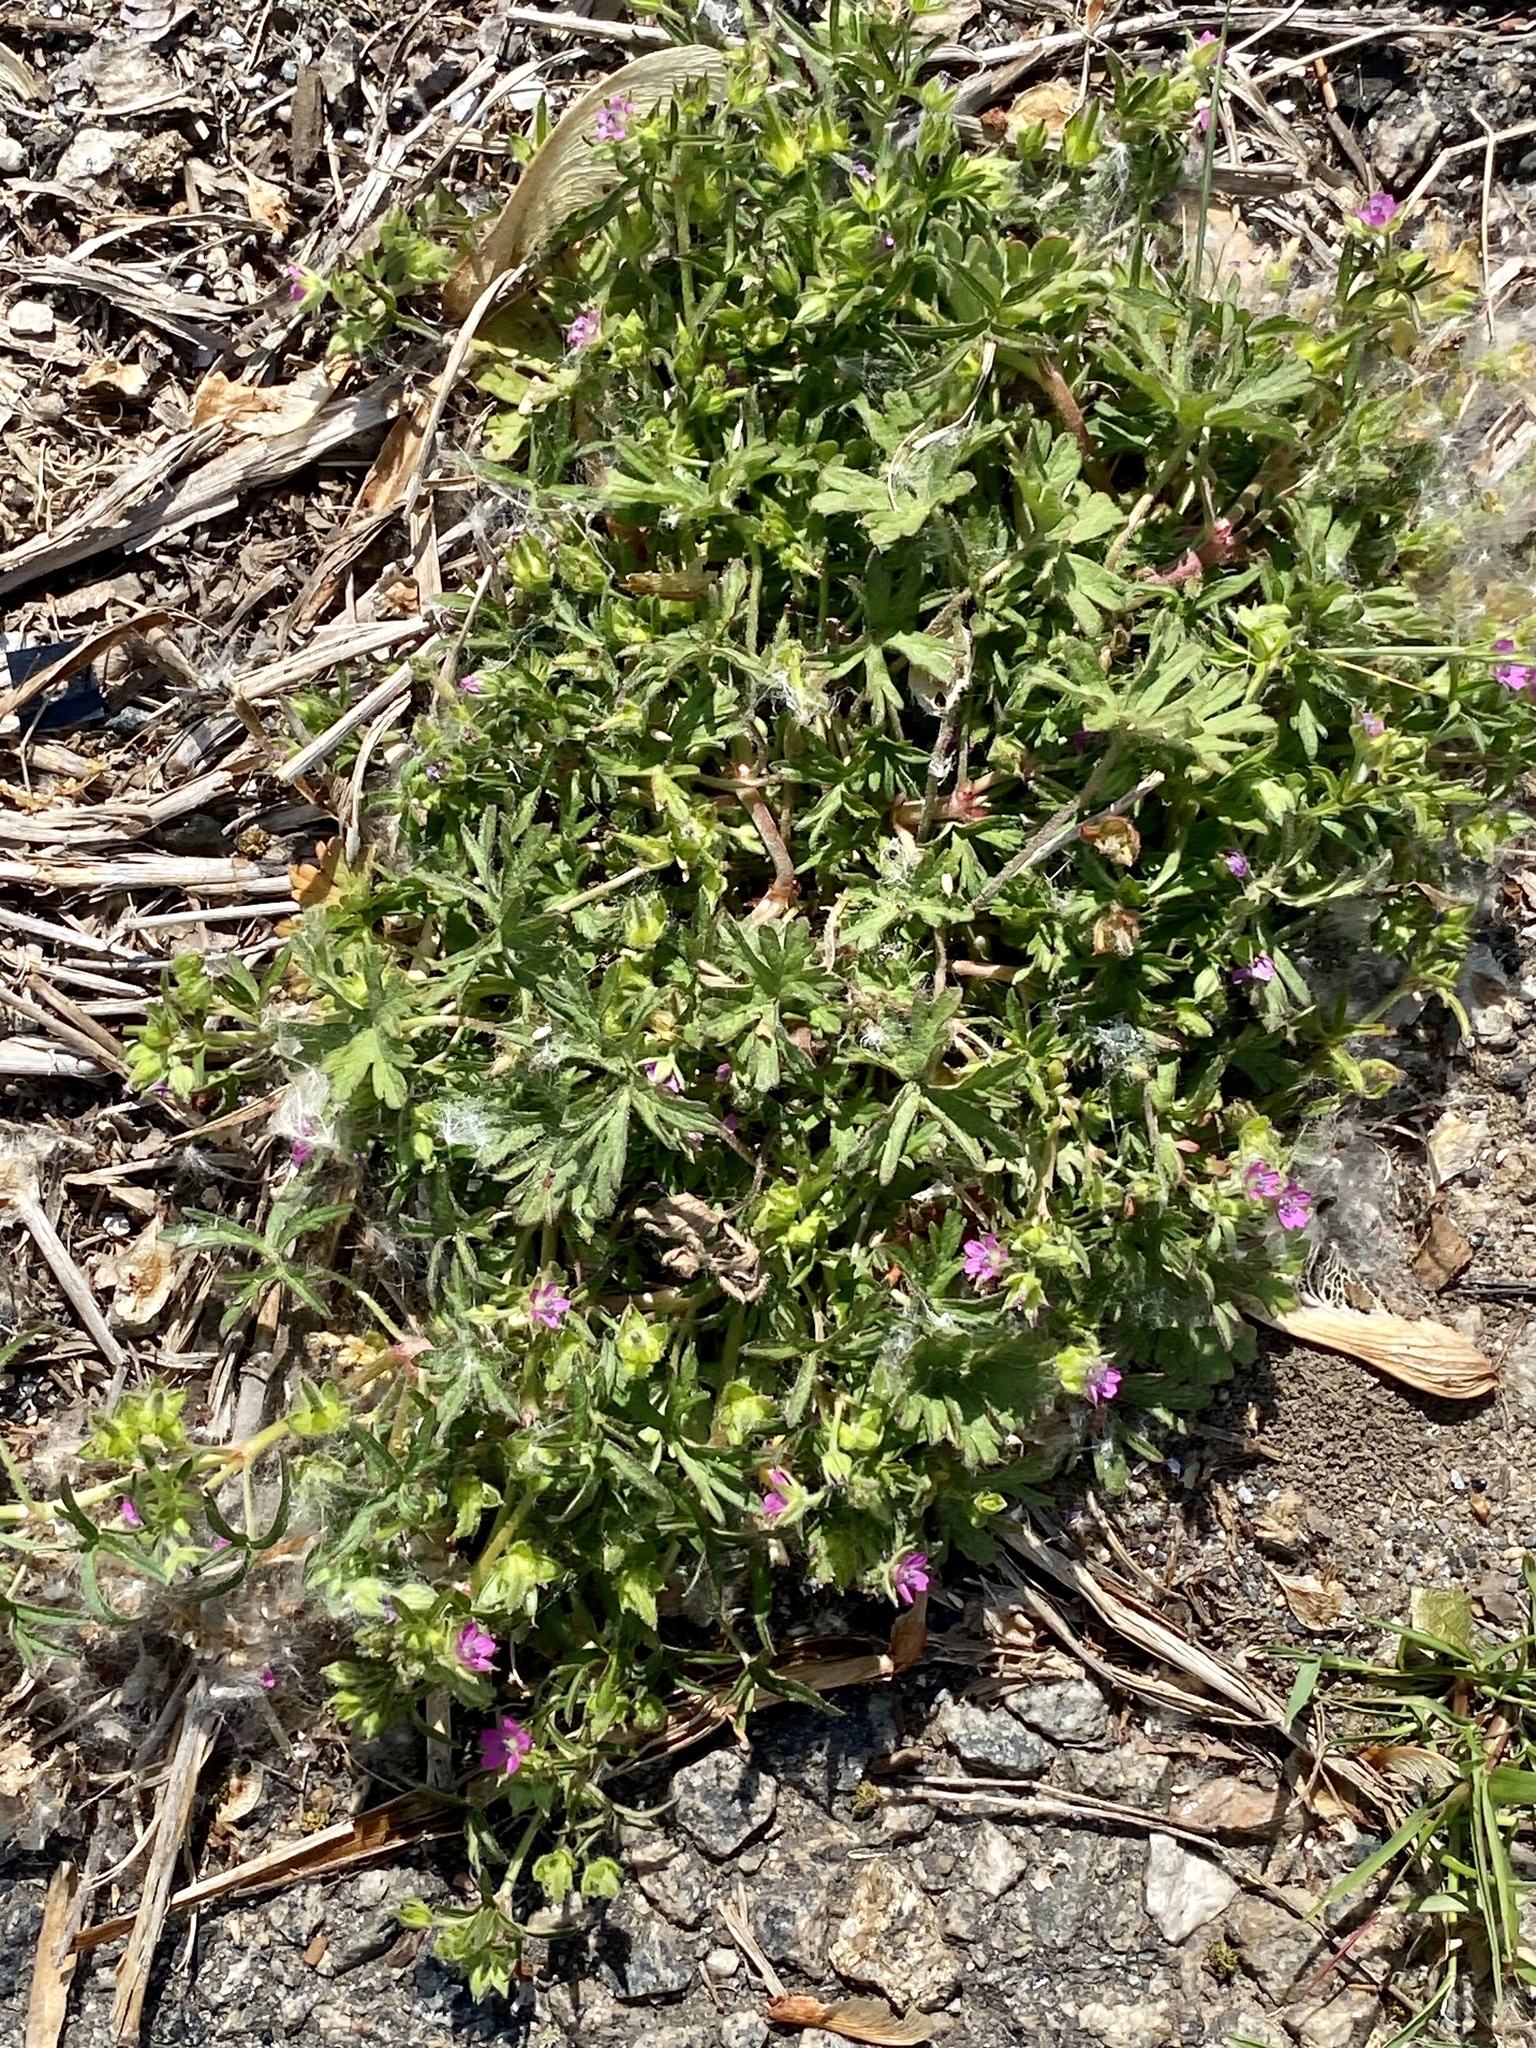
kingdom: Plantae
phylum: Tracheophyta
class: Magnoliopsida
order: Geraniales
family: Geraniaceae
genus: Geranium
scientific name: Geranium dissectum
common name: Cut-leaved crane's-bill
